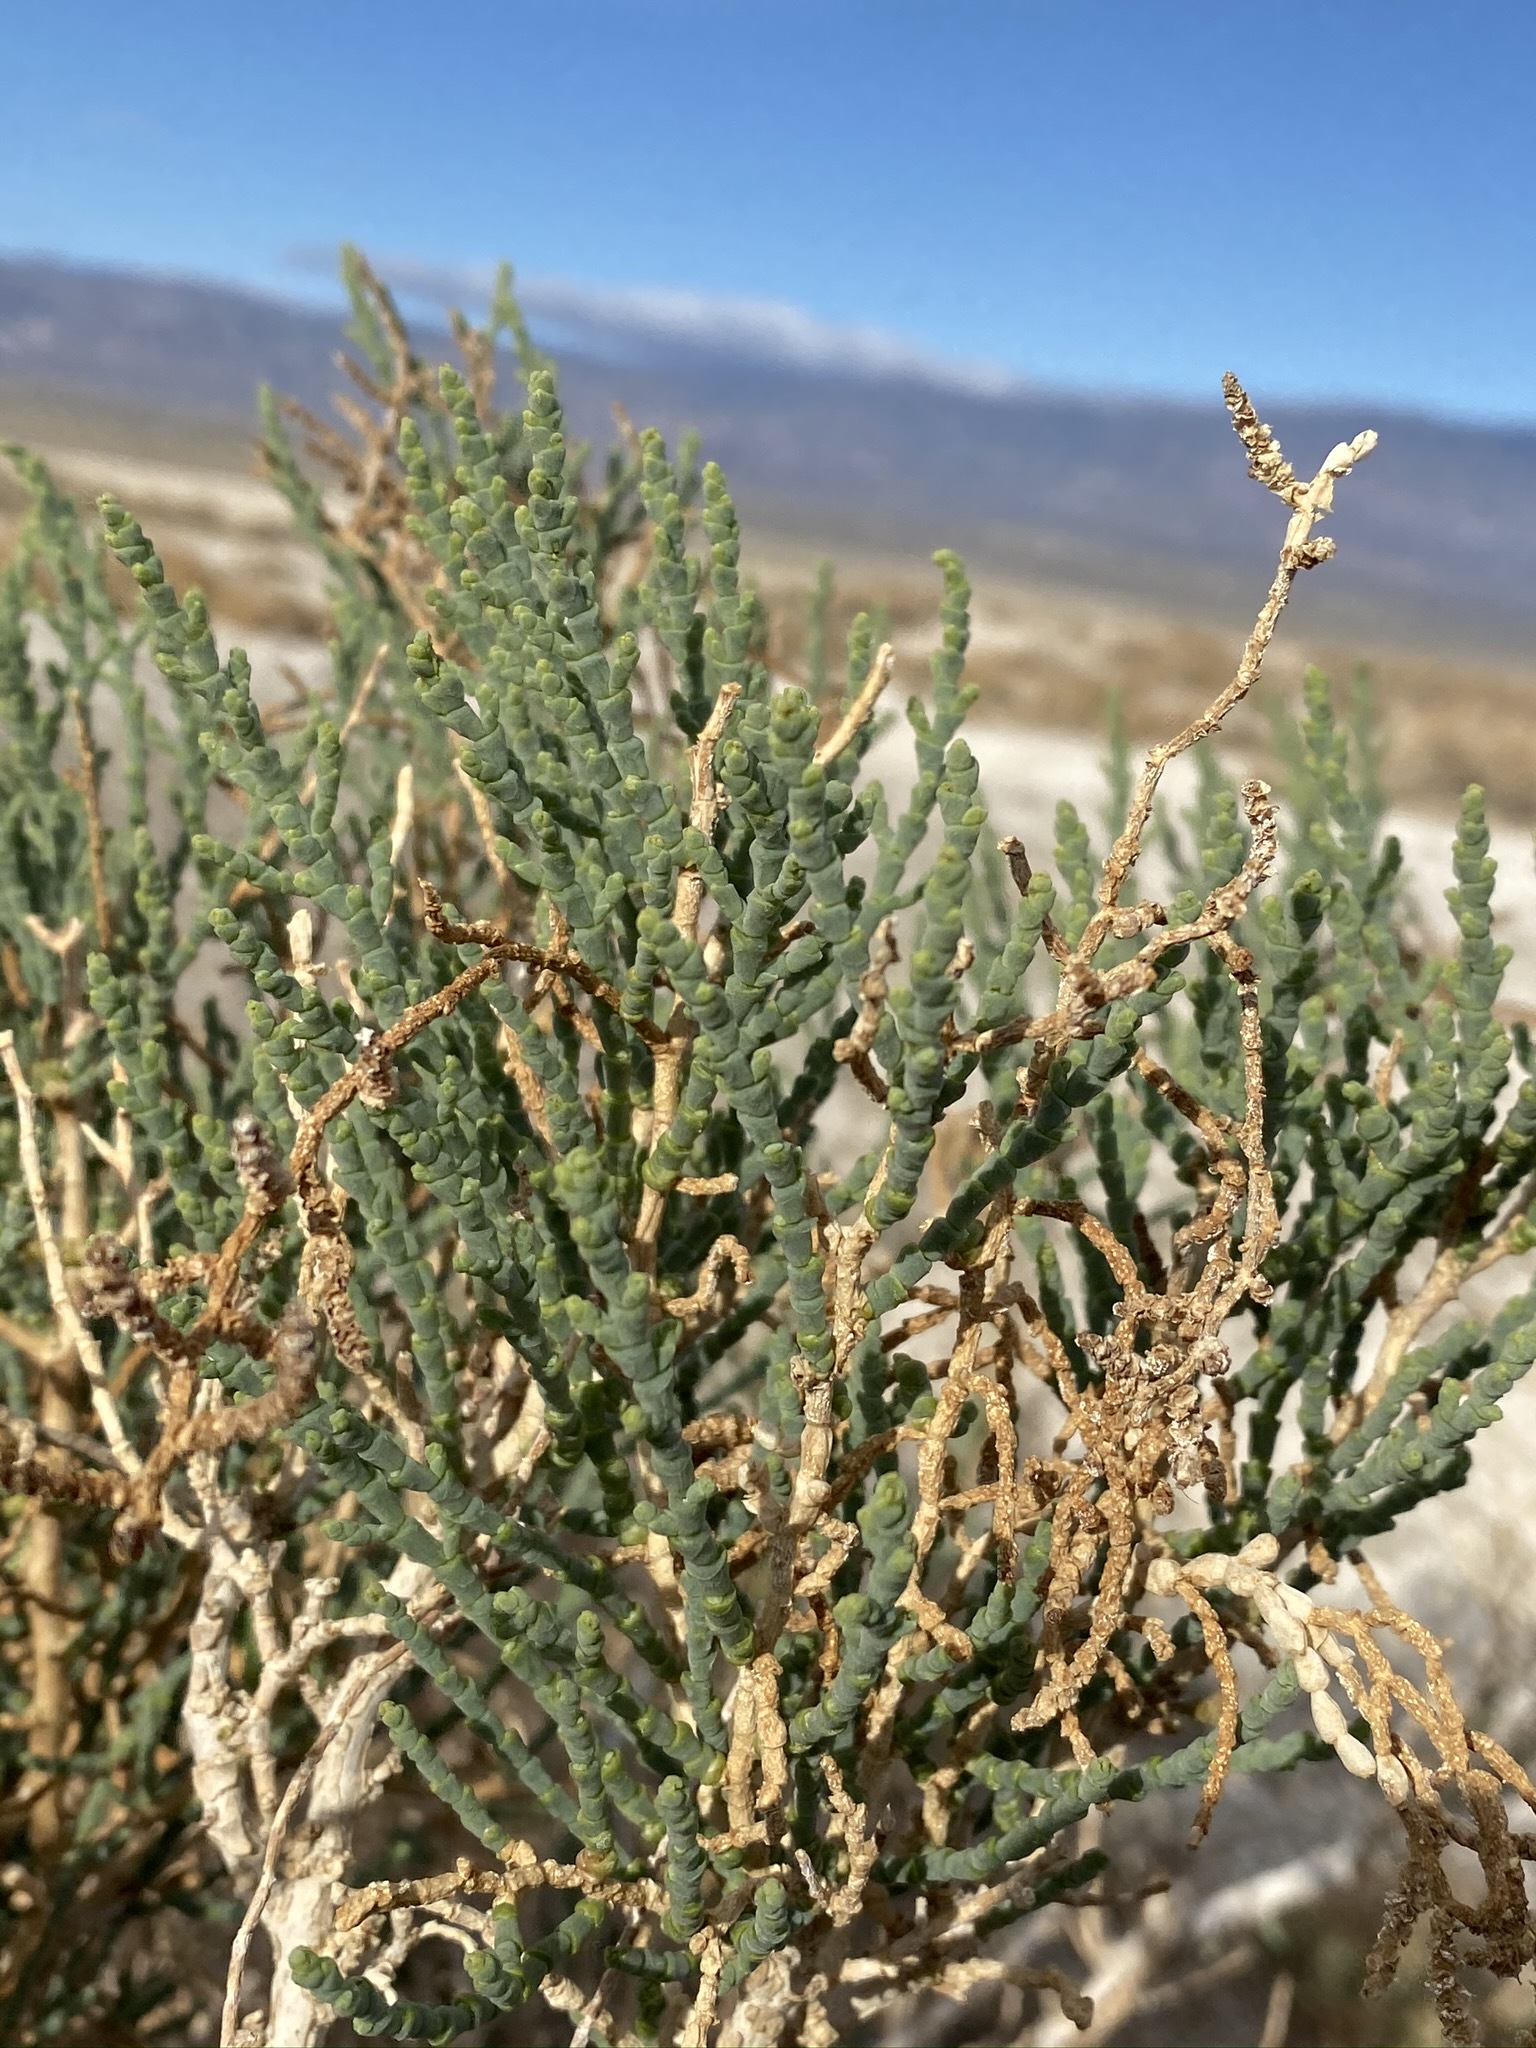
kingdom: Plantae
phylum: Tracheophyta
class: Magnoliopsida
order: Caryophyllales
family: Amaranthaceae
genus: Allenrolfea
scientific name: Allenrolfea occidentalis
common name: Iodine-bush
